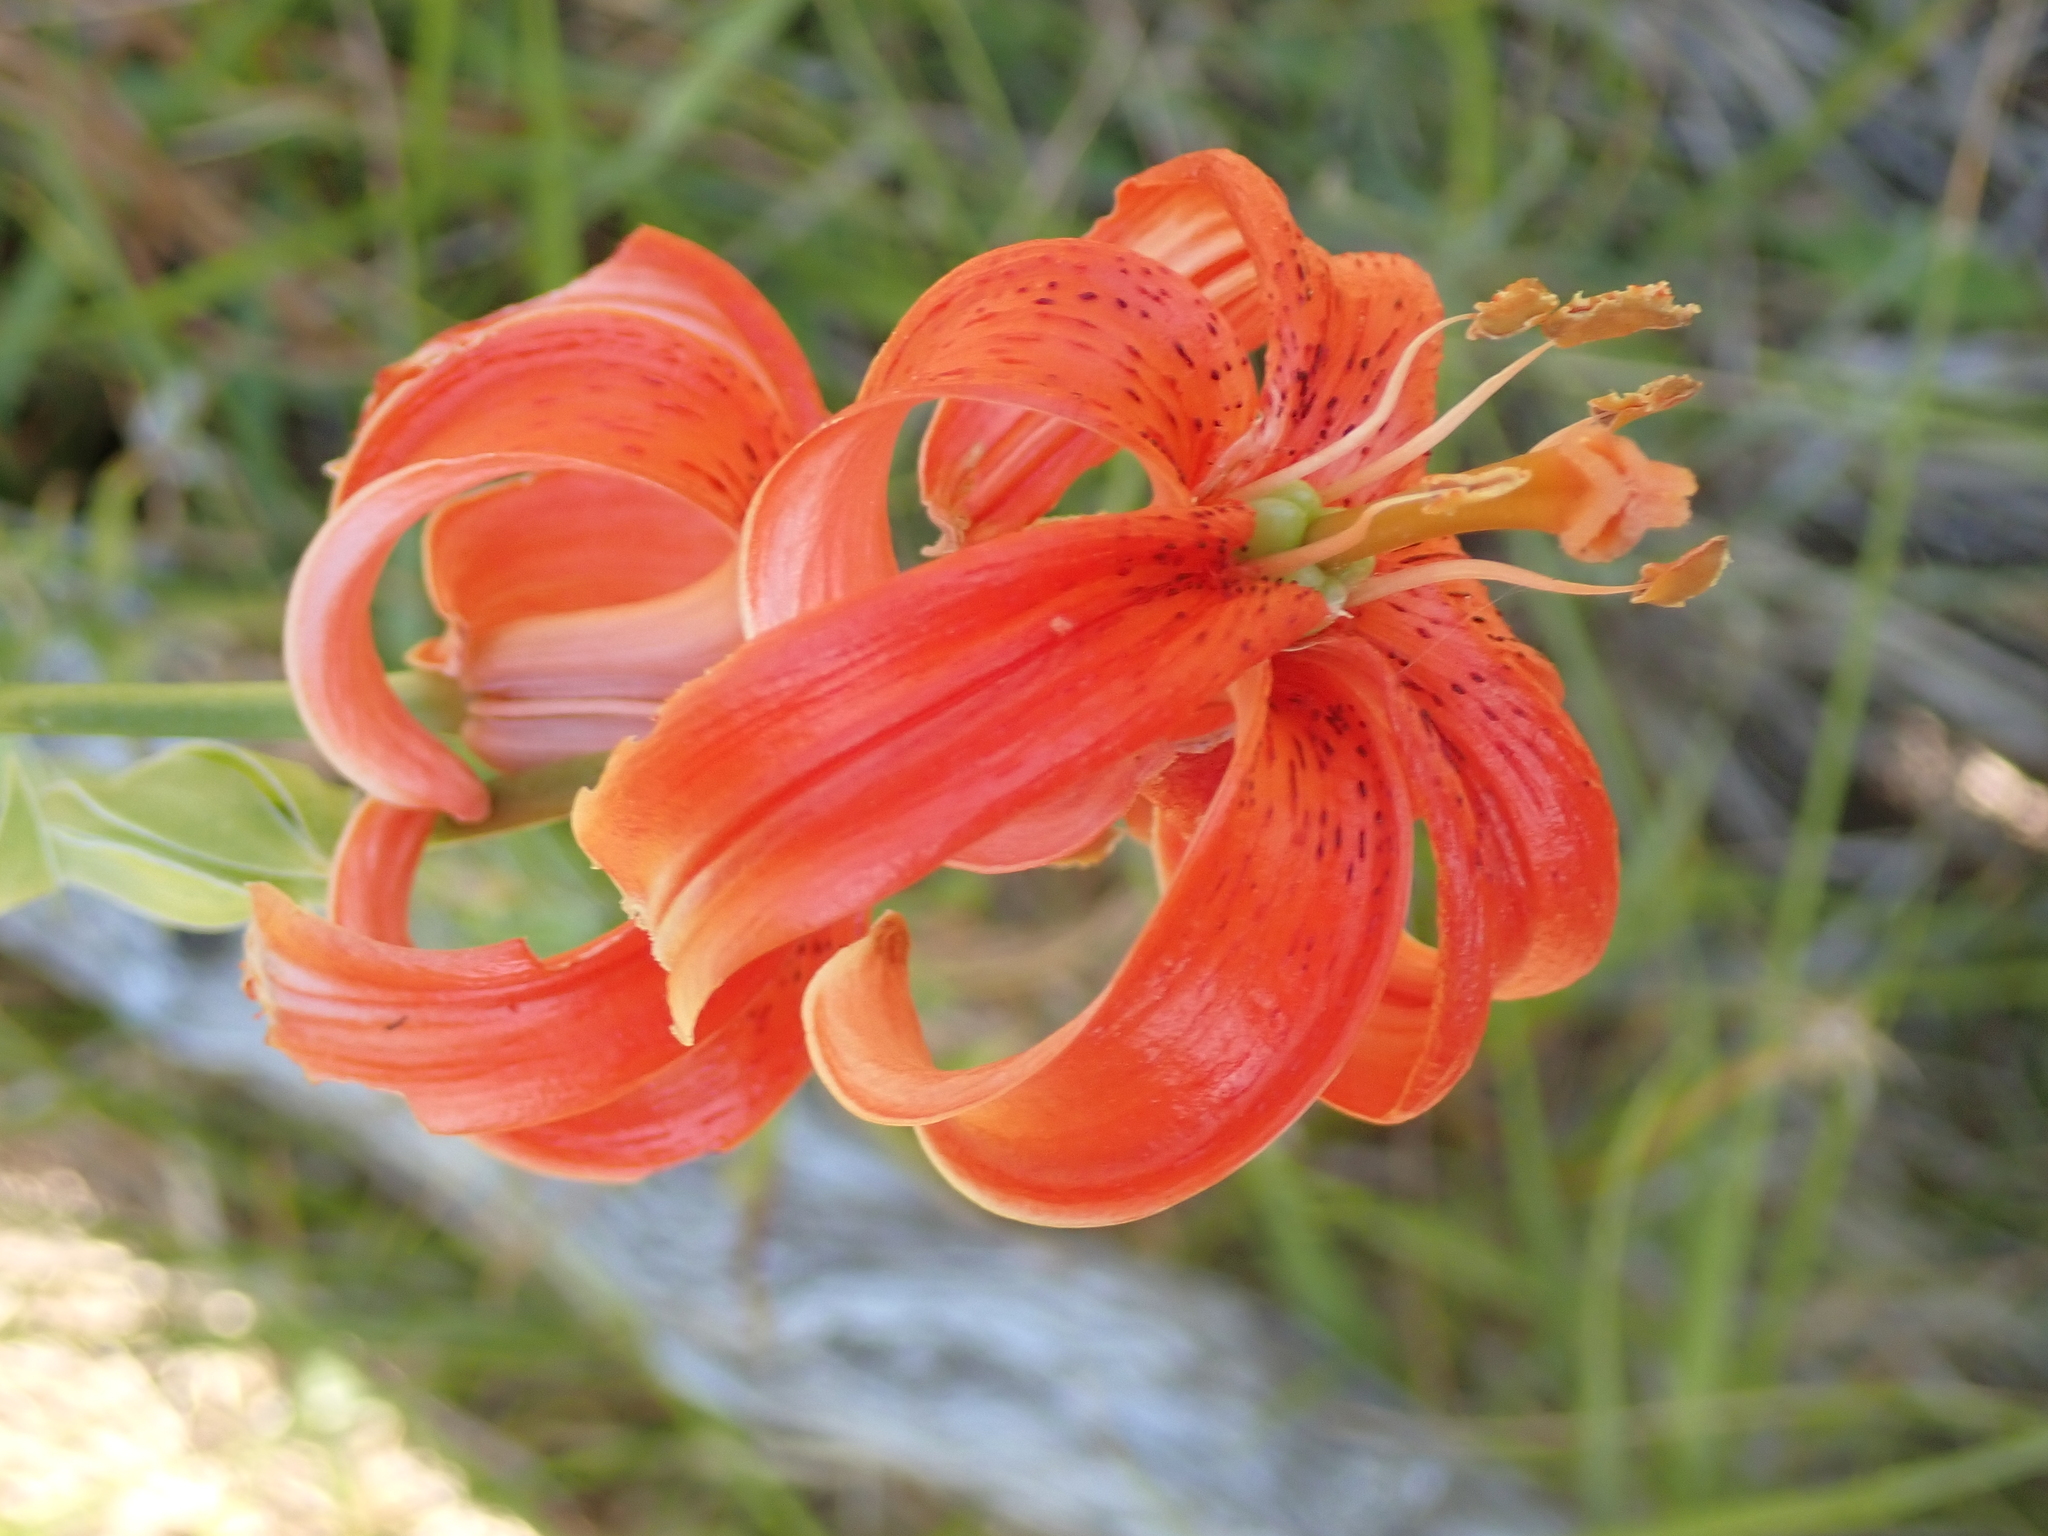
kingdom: Plantae
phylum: Tracheophyta
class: Liliopsida
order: Liliales
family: Liliaceae
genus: Lilium
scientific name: Lilium chalcedonicum
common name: Red martagon of constantinople
